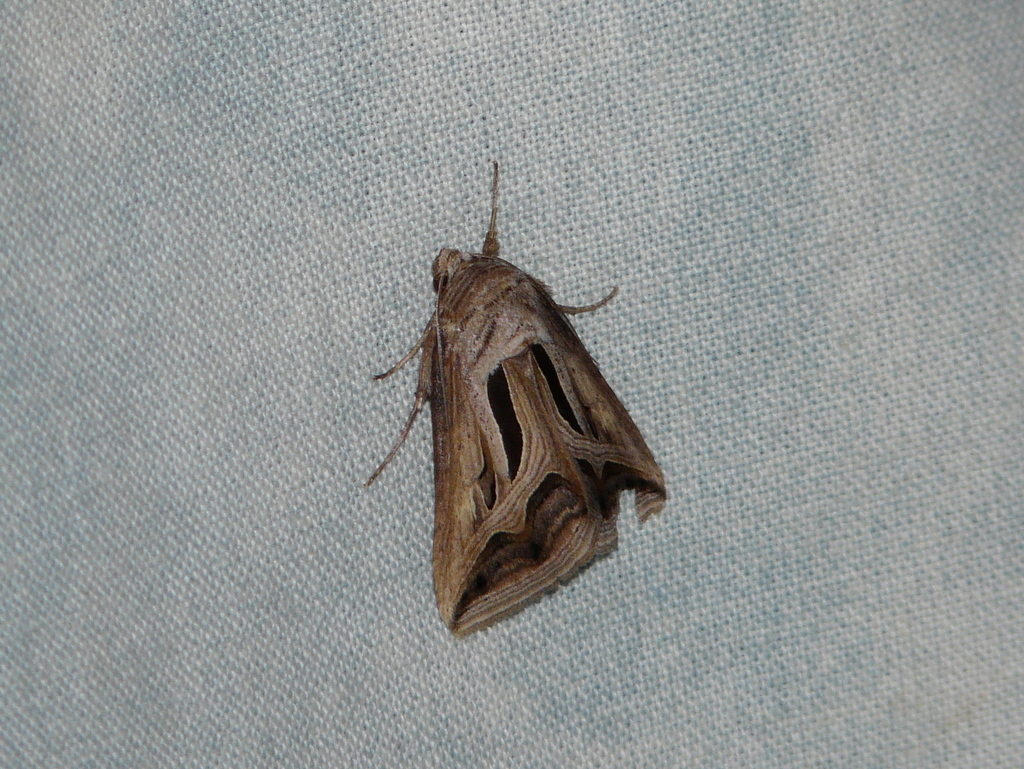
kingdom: Animalia
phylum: Arthropoda
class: Insecta
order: Lepidoptera
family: Erebidae
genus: Cuneisigna
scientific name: Cuneisigna cumamita
